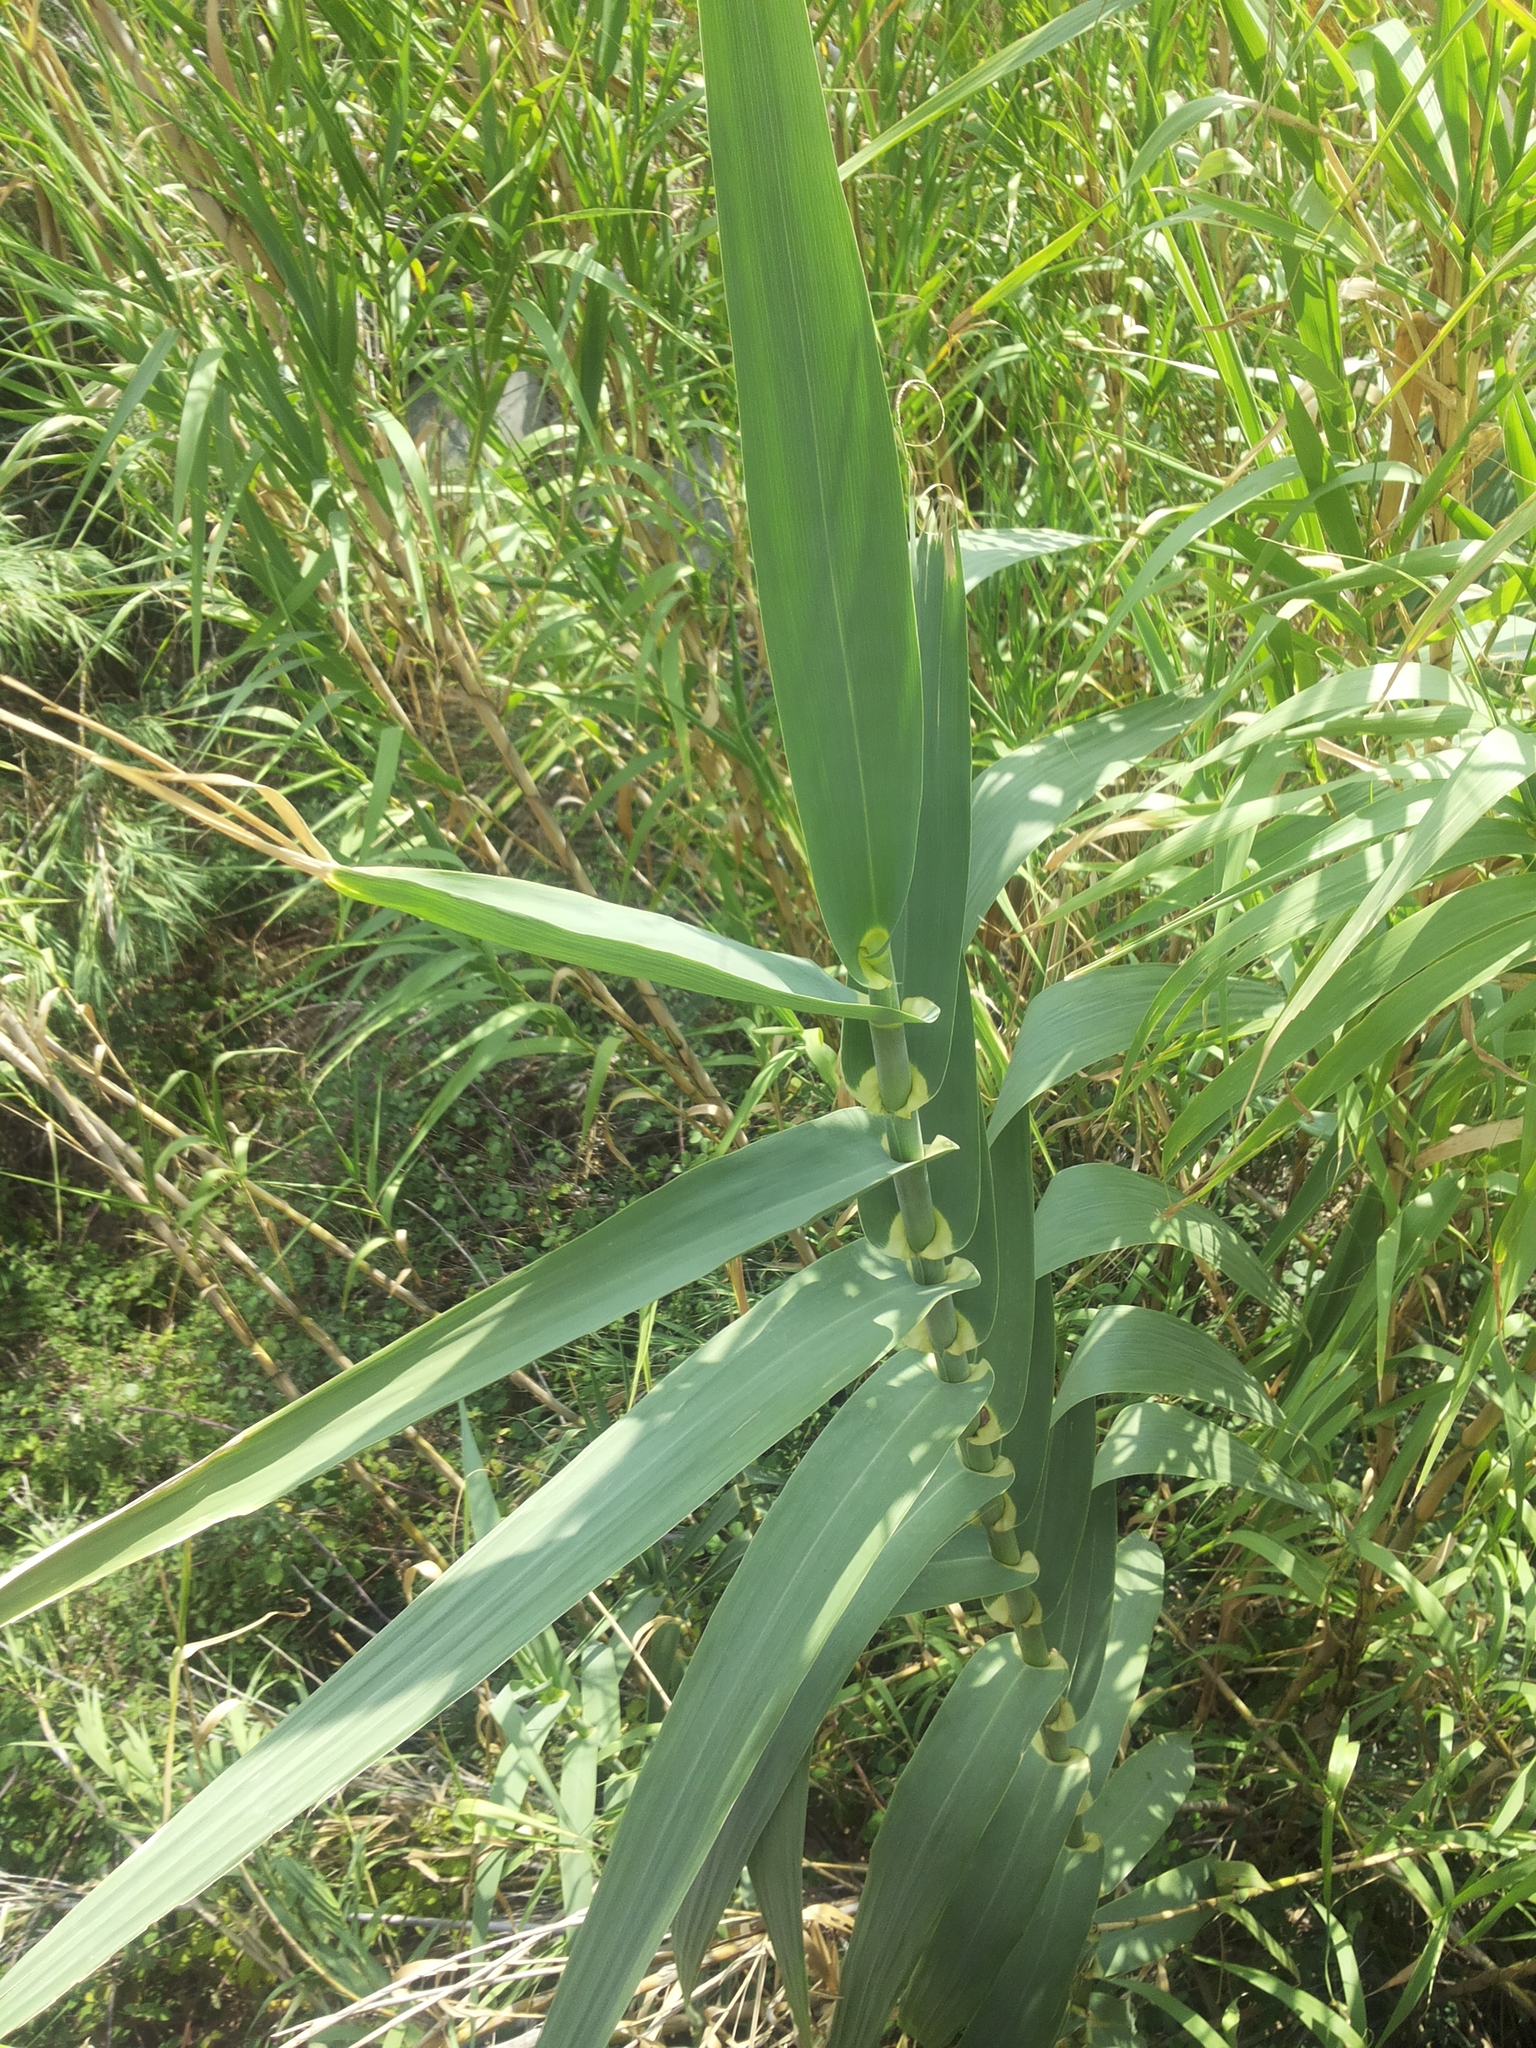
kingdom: Plantae
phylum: Tracheophyta
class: Liliopsida
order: Poales
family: Poaceae
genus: Arundo
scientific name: Arundo donax
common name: Giant reed
